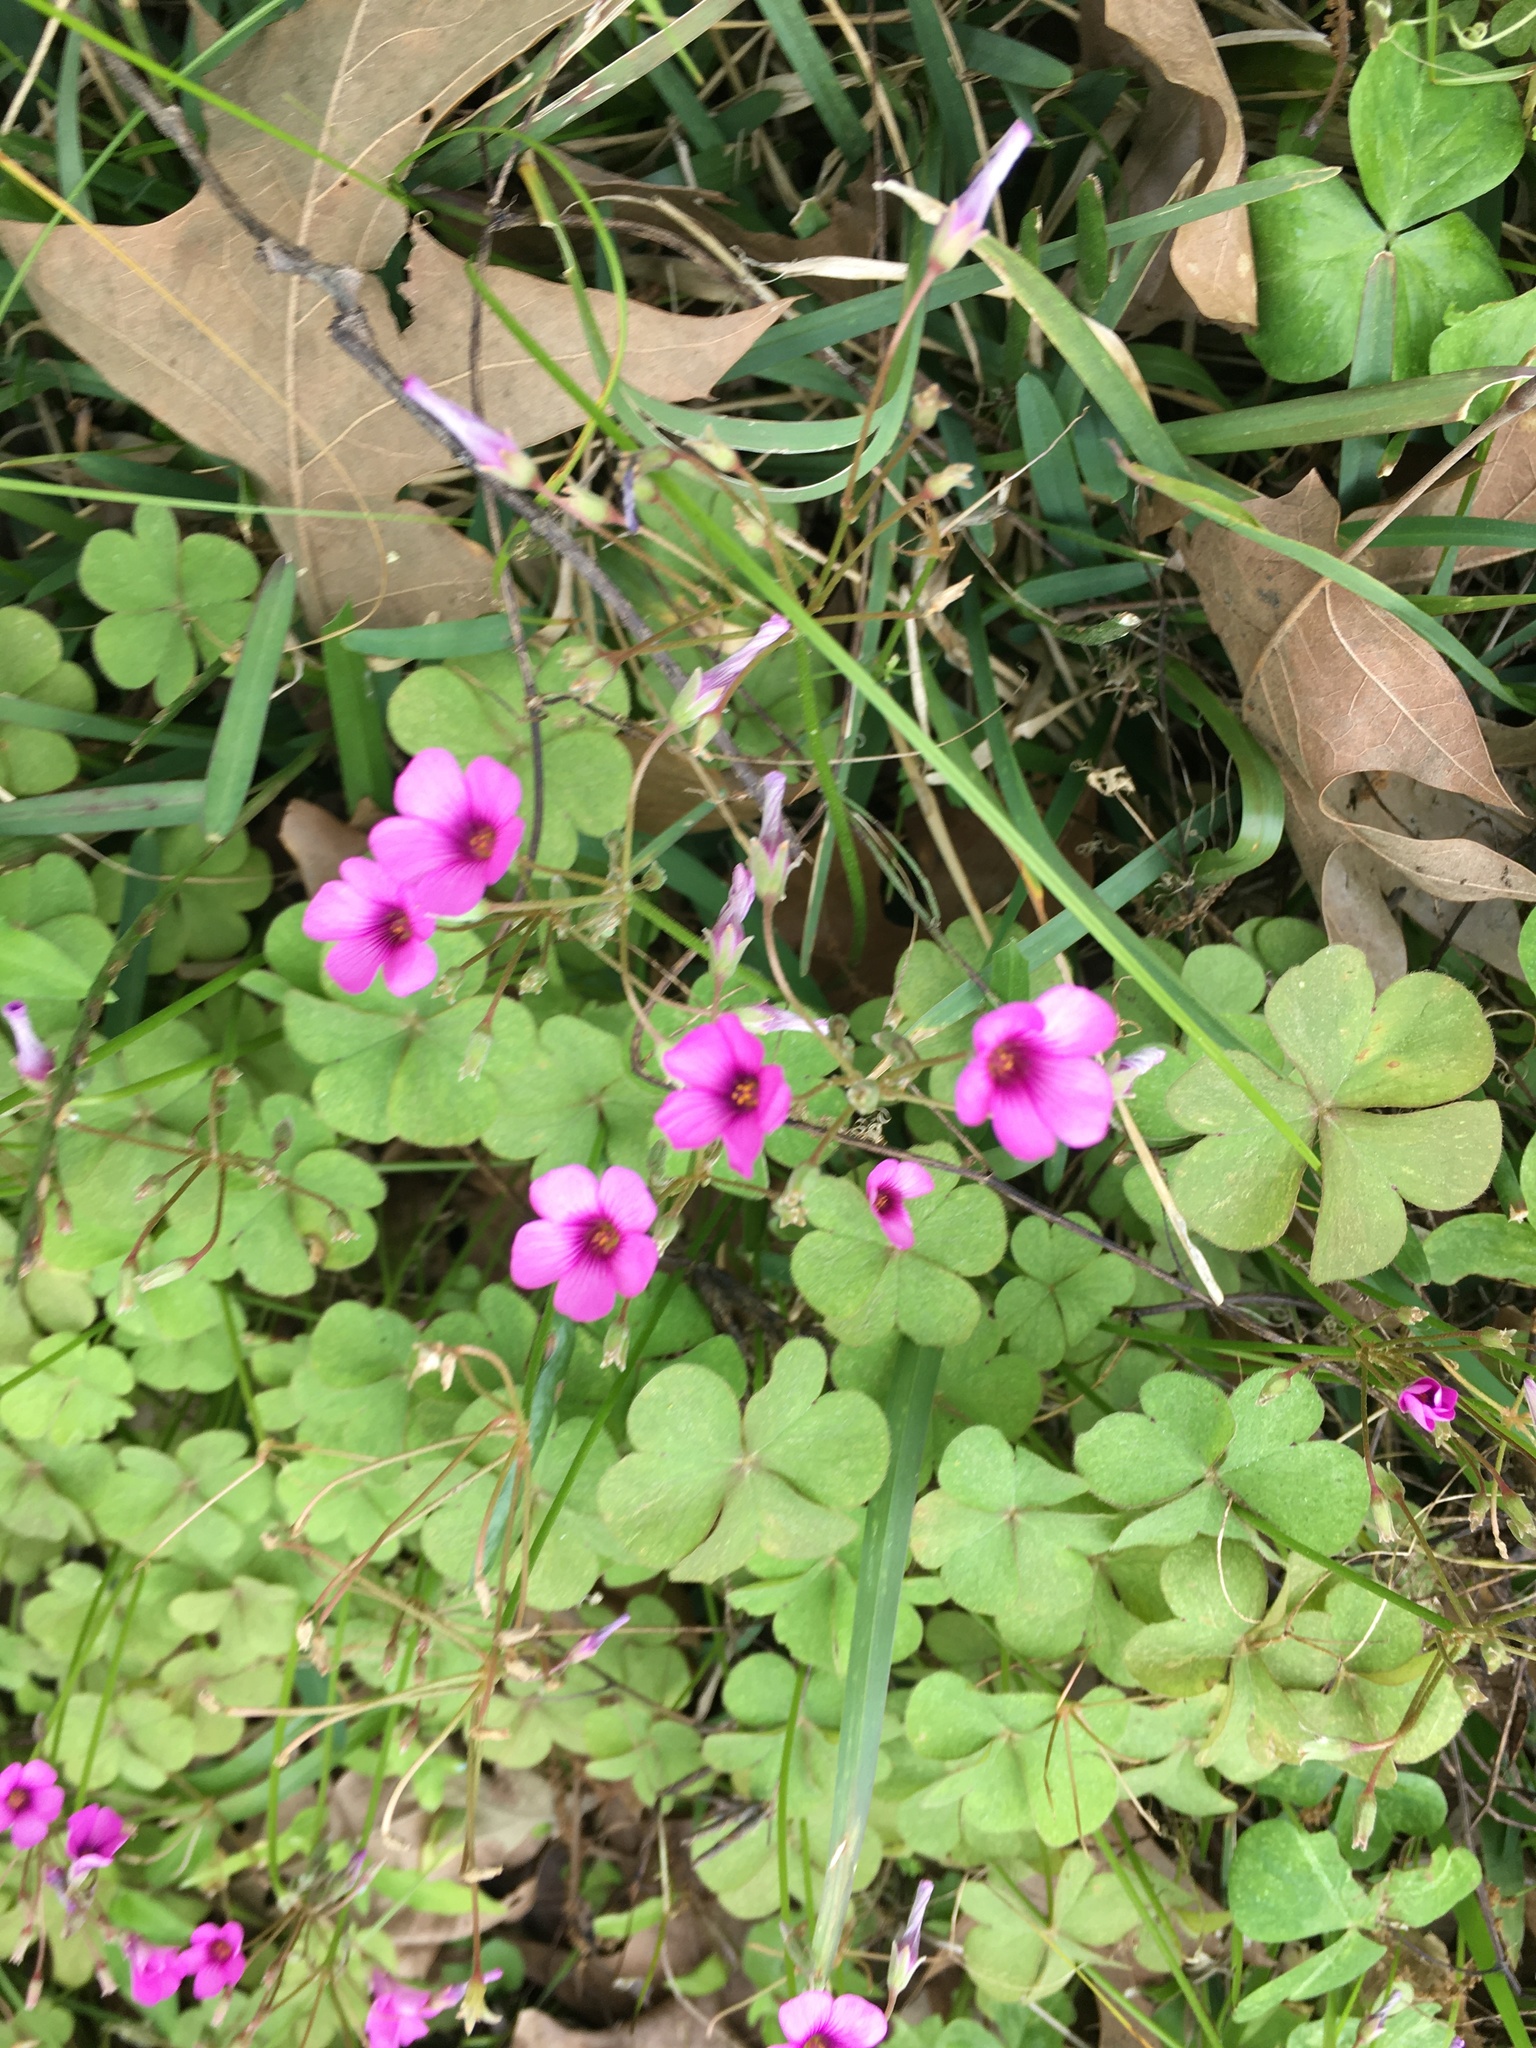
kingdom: Plantae
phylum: Tracheophyta
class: Magnoliopsida
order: Oxalidales
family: Oxalidaceae
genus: Oxalis
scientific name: Oxalis articulata
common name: Pink-sorrel
